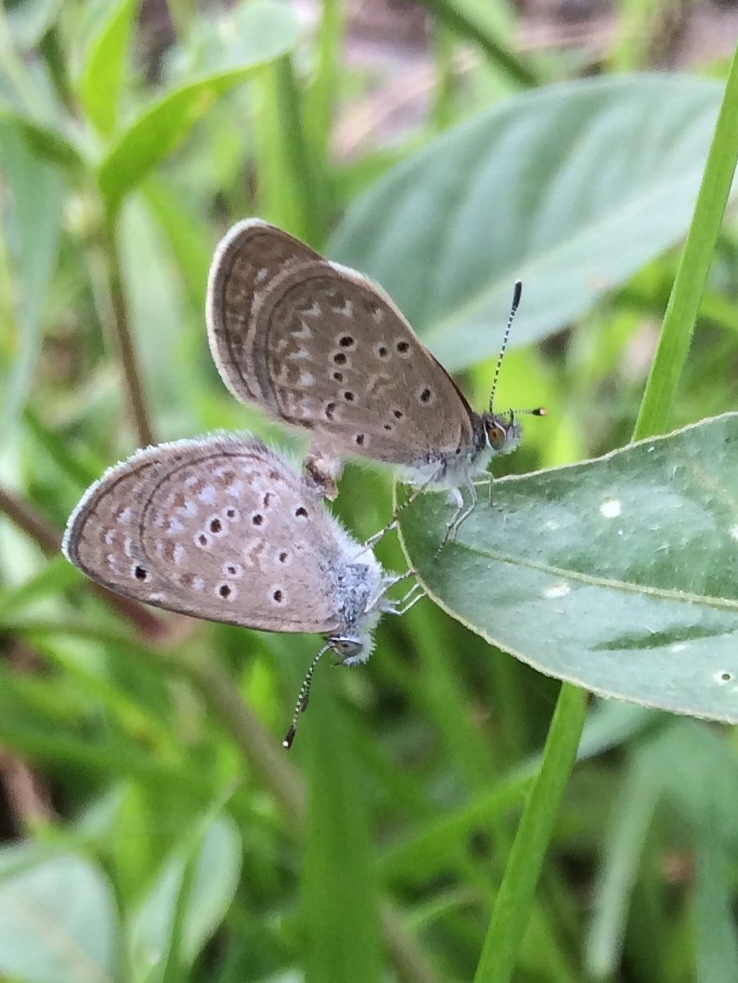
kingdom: Animalia
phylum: Arthropoda
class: Insecta
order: Lepidoptera
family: Lycaenidae
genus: Zizina
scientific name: Zizina otis
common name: Lesser grass blue
